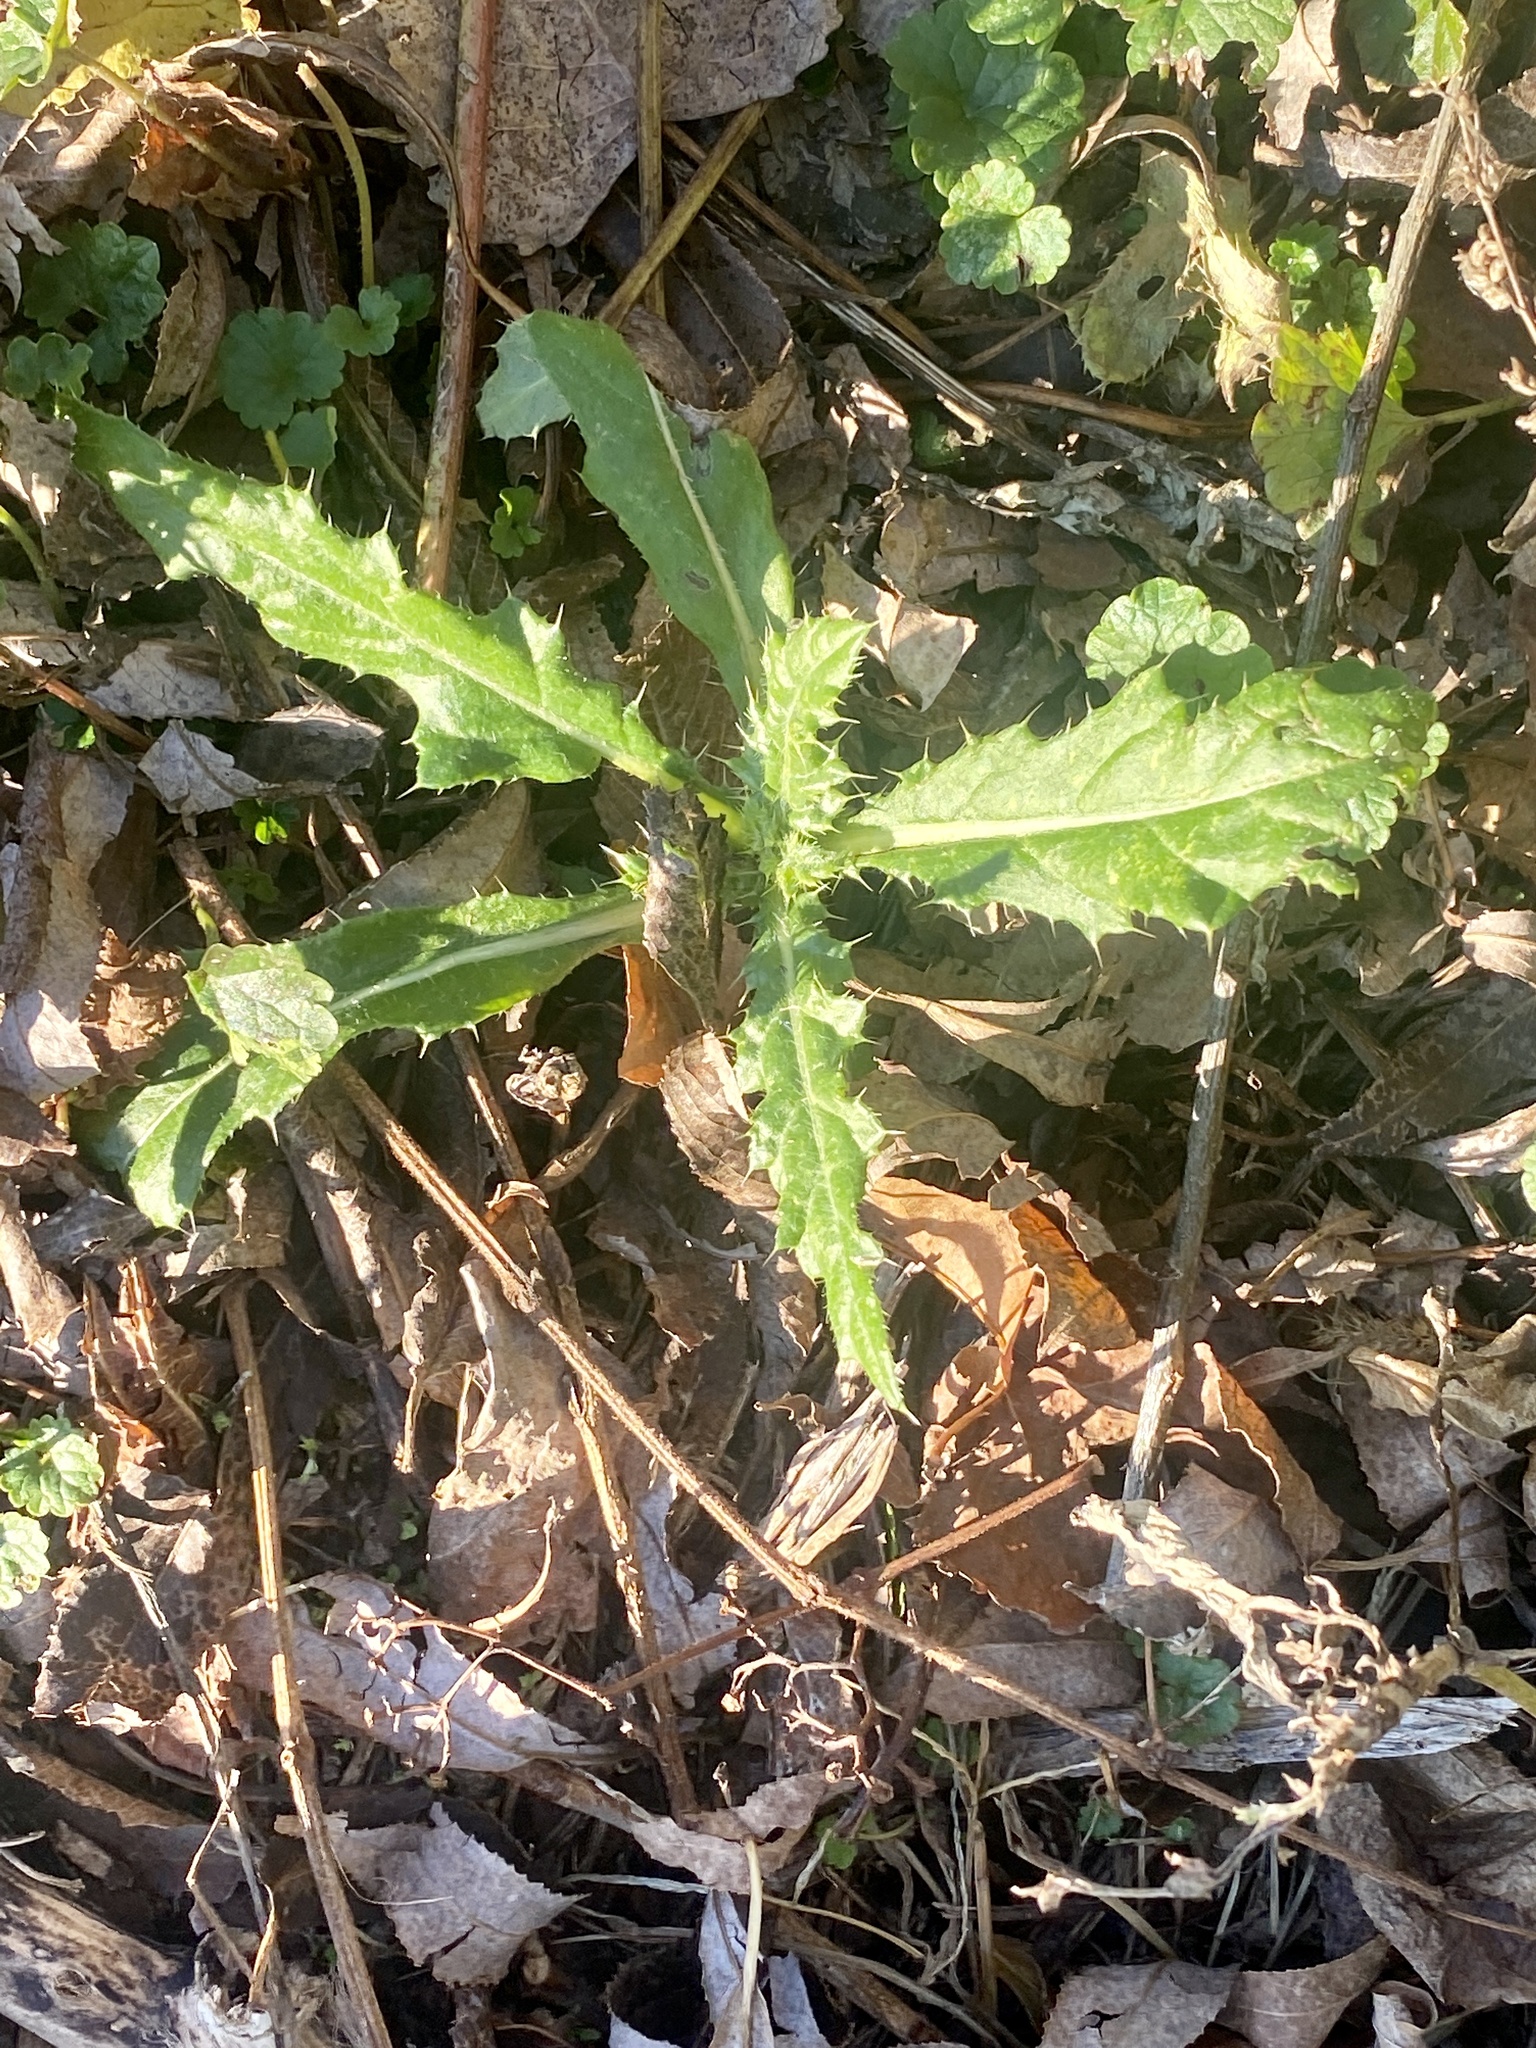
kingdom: Plantae
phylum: Tracheophyta
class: Magnoliopsida
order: Asterales
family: Asteraceae
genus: Cirsium
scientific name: Cirsium arvense
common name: Creeping thistle
